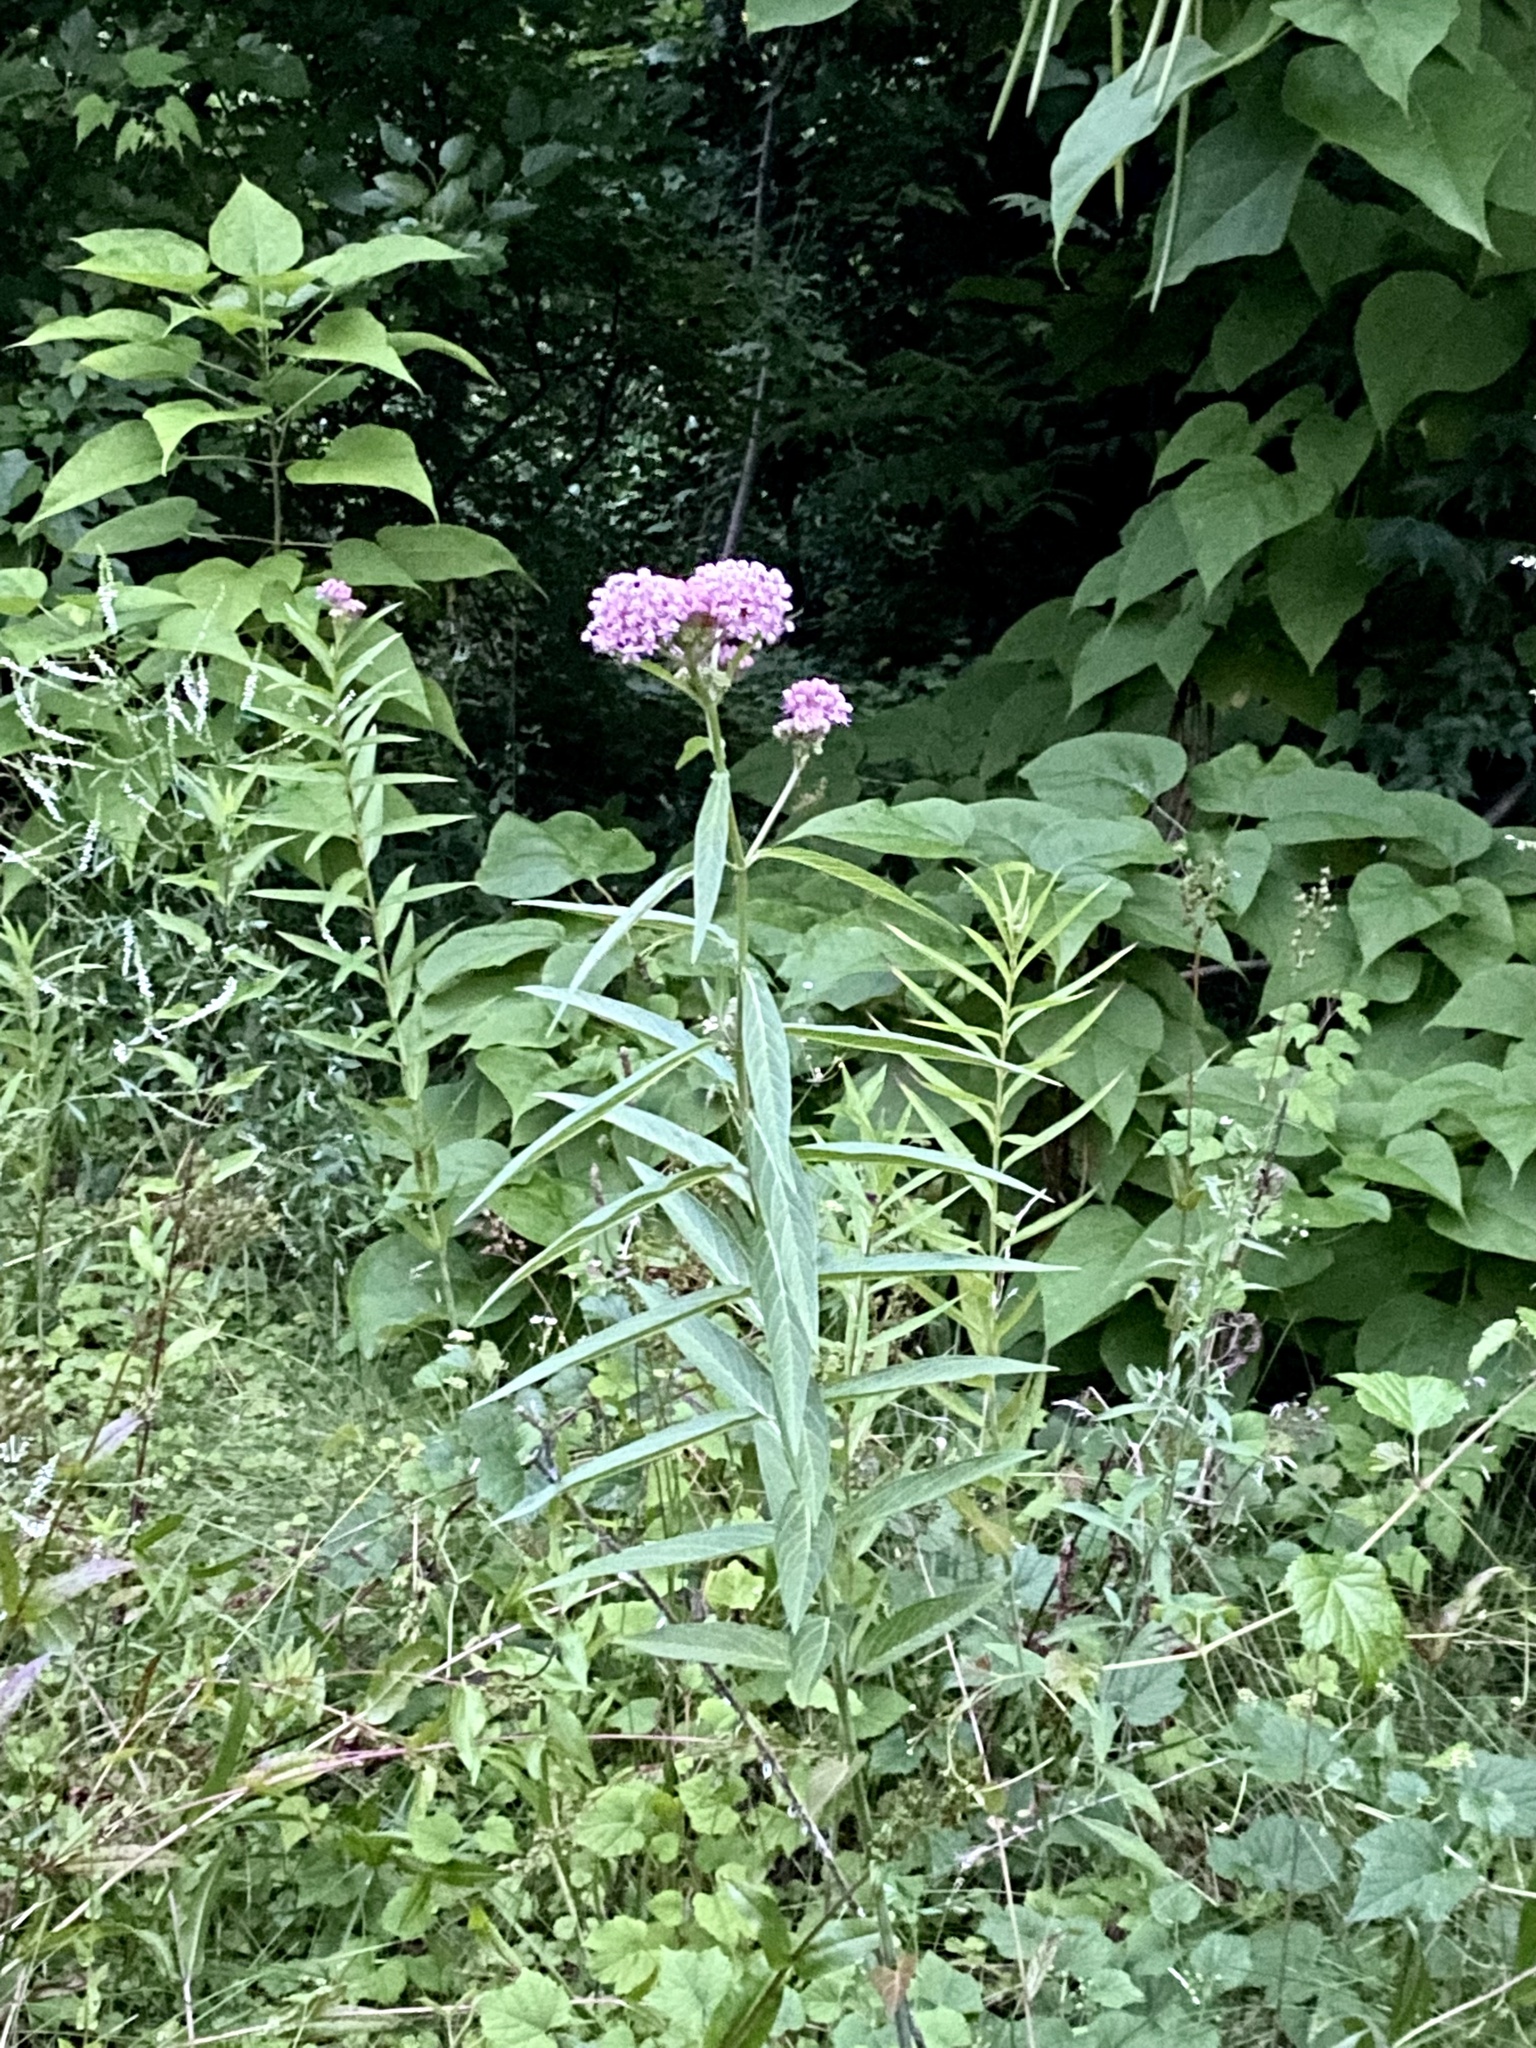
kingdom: Plantae
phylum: Tracheophyta
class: Magnoliopsida
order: Gentianales
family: Apocynaceae
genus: Asclepias
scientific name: Asclepias incarnata
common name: Swamp milkweed
